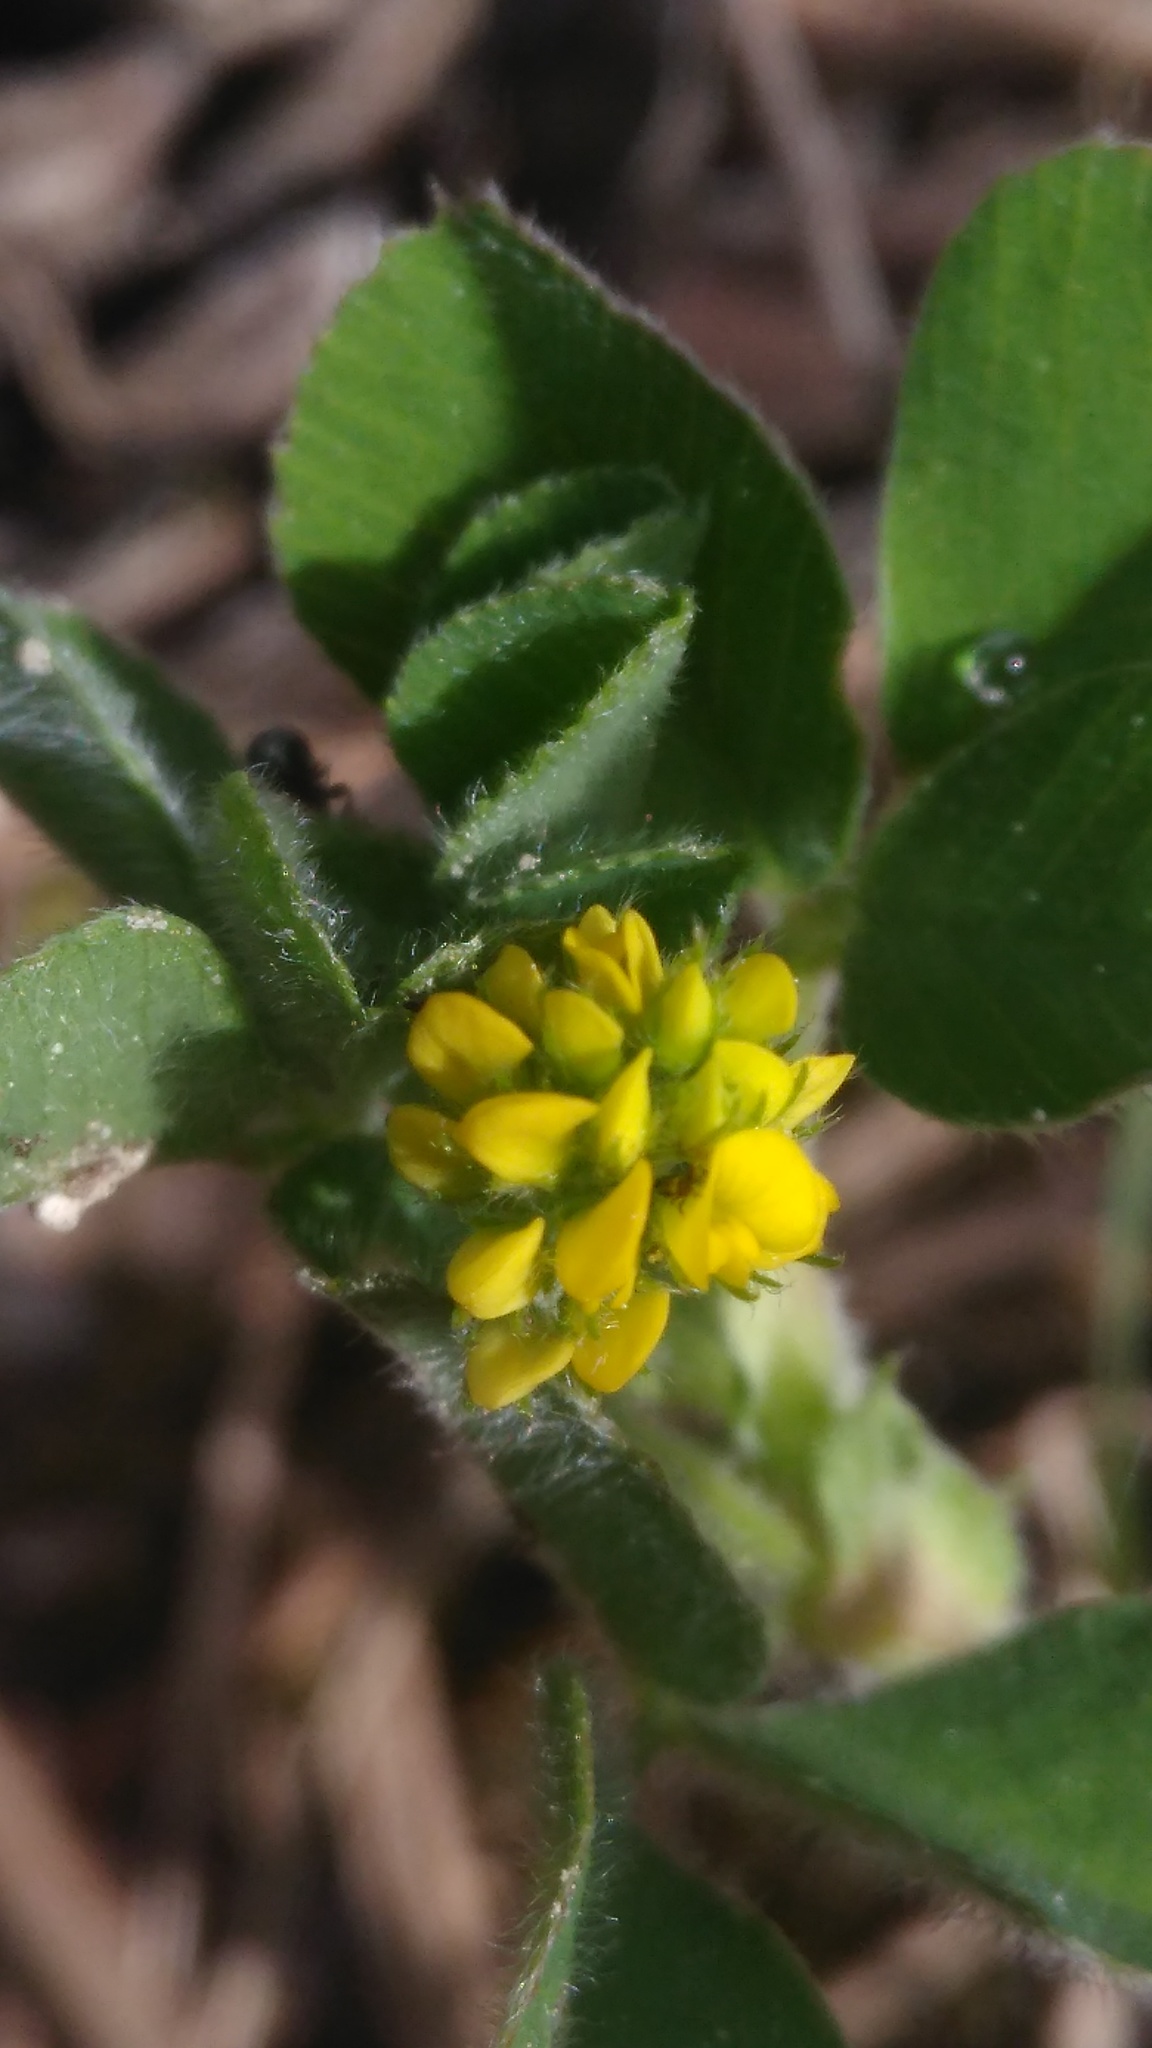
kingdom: Plantae
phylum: Tracheophyta
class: Magnoliopsida
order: Fabales
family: Fabaceae
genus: Medicago
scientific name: Medicago lupulina
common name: Black medick
